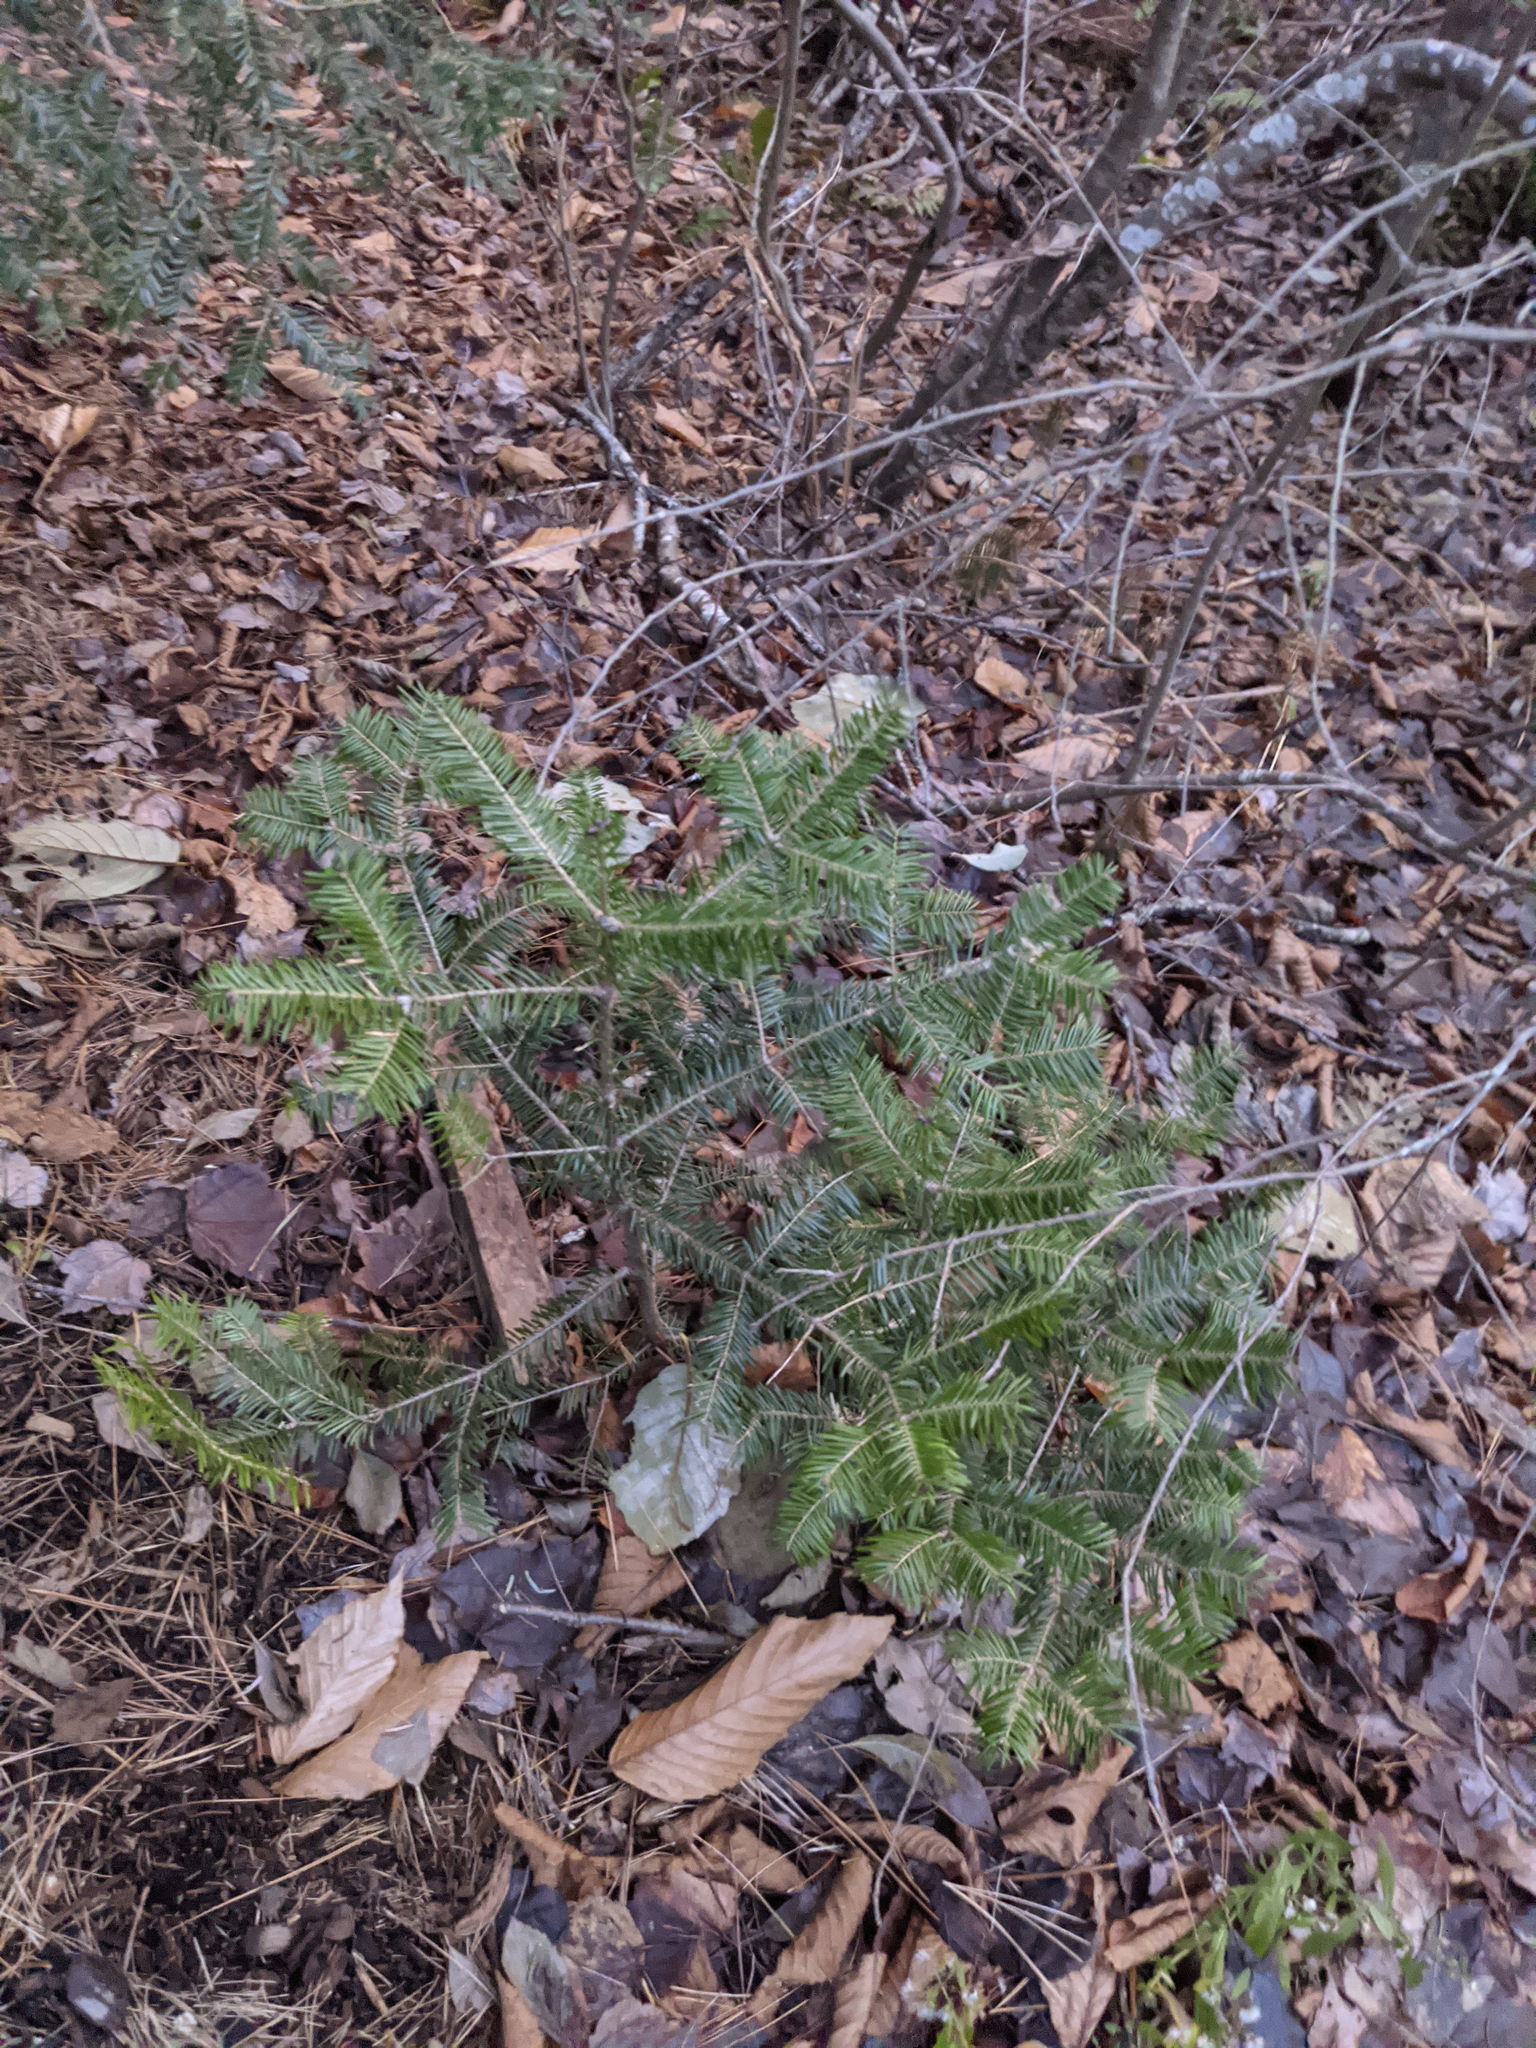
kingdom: Plantae
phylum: Tracheophyta
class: Pinopsida
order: Pinales
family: Pinaceae
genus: Abies
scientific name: Abies balsamea
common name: Balsam fir
